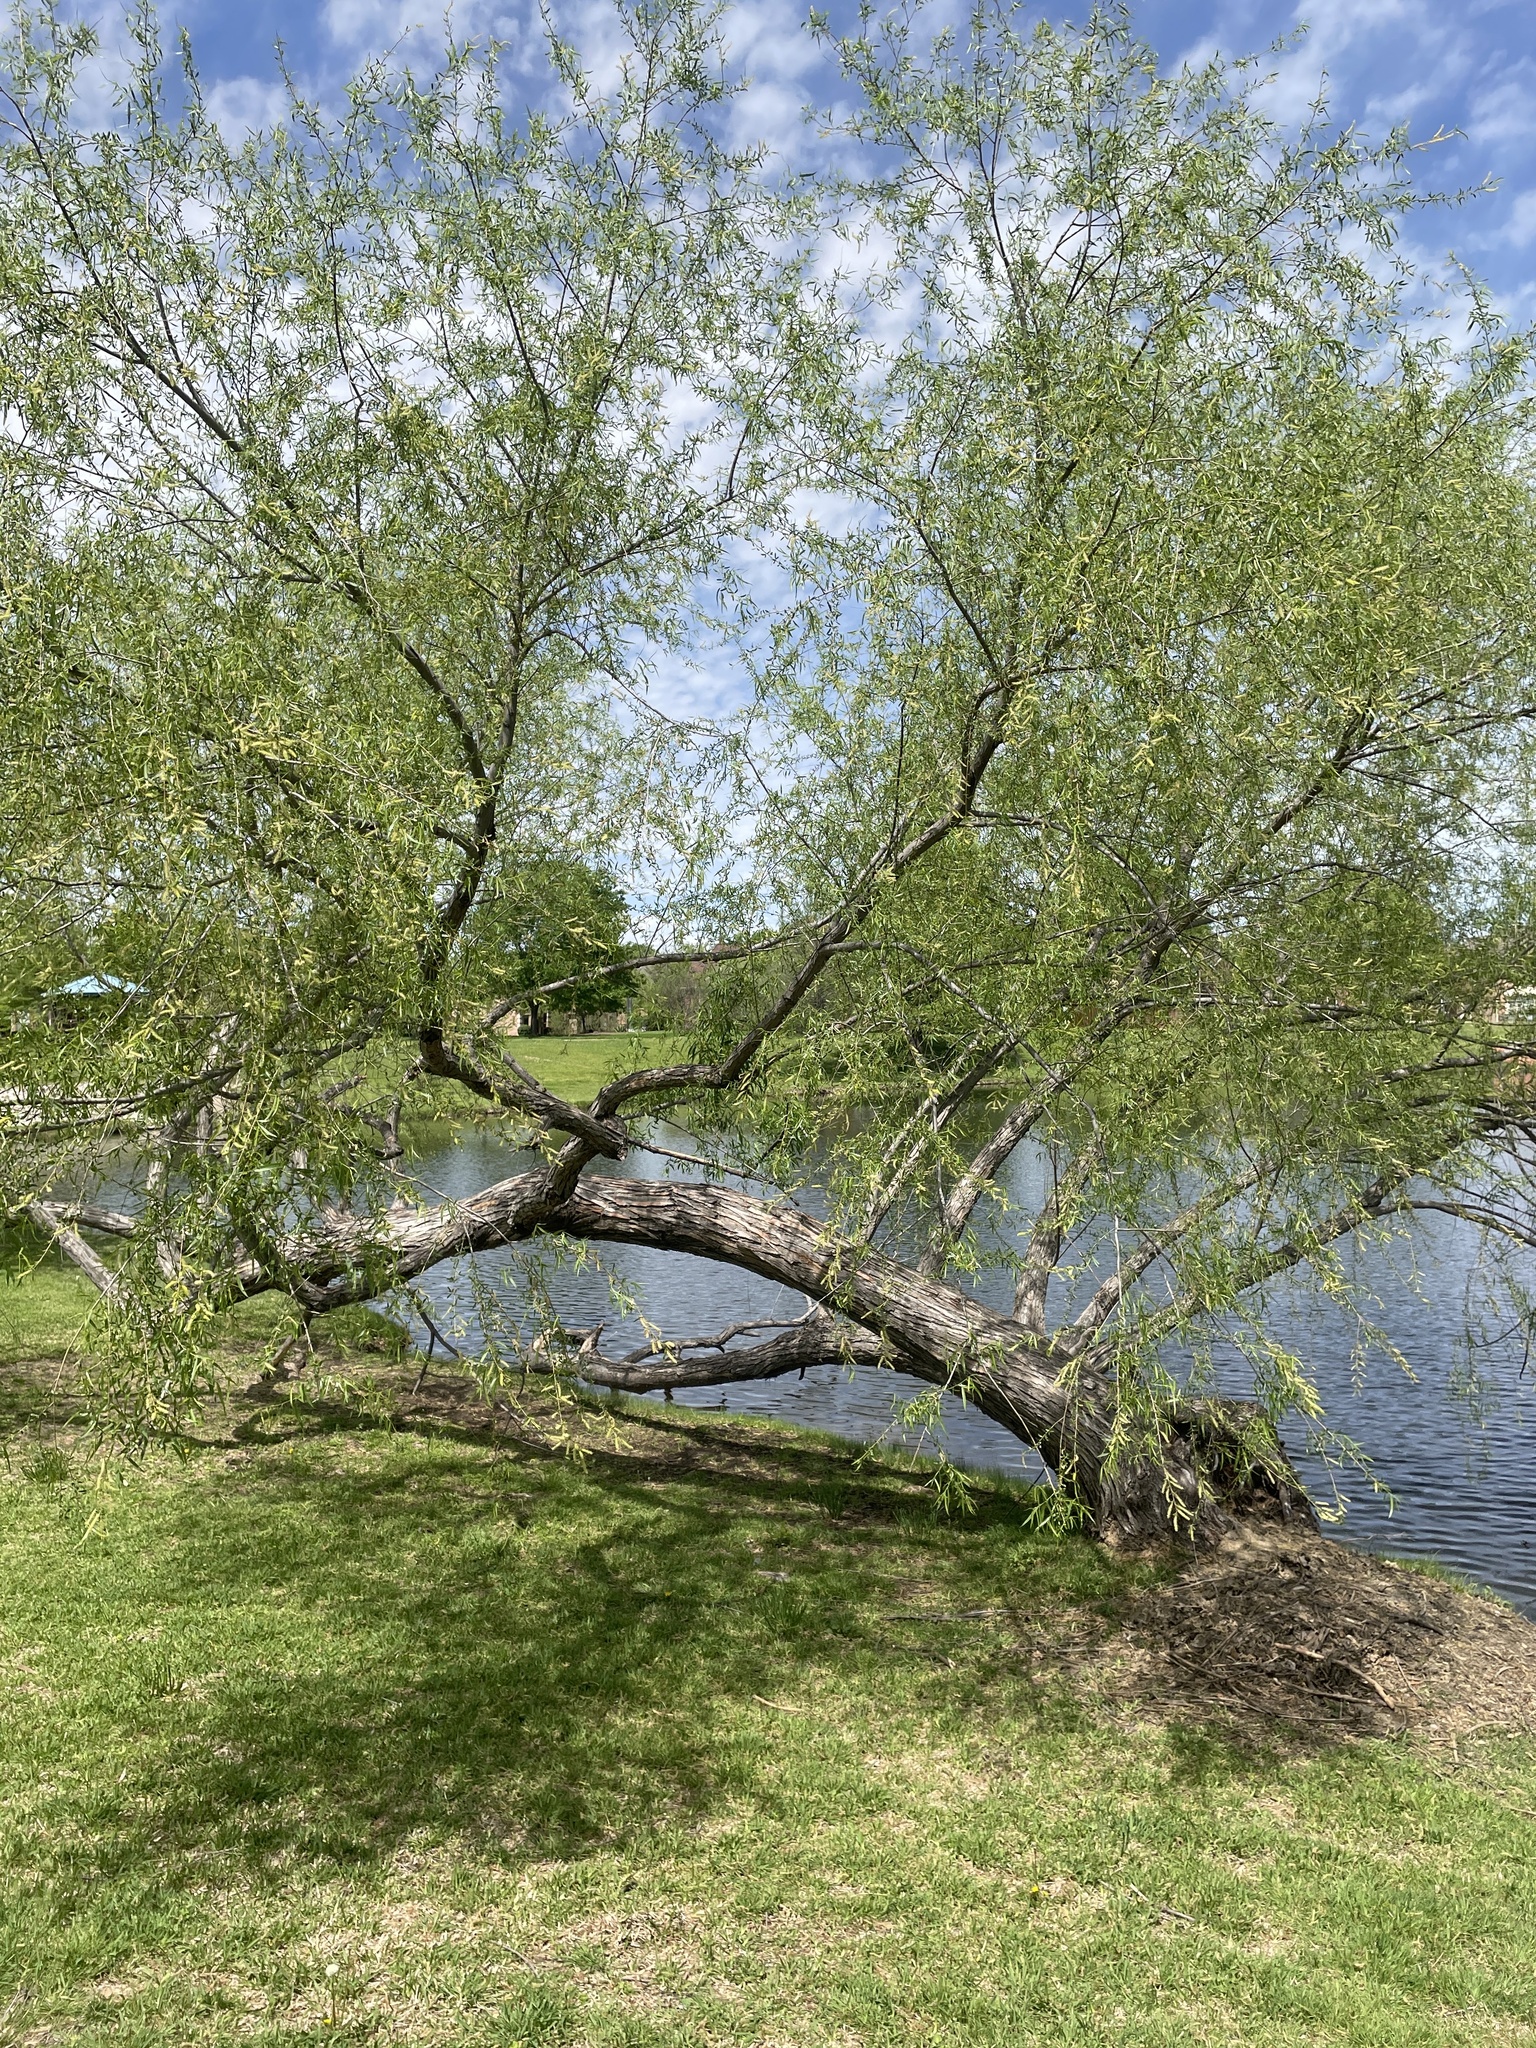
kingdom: Plantae
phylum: Tracheophyta
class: Magnoliopsida
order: Malpighiales
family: Salicaceae
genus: Salix
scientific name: Salix nigra
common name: Black willow
